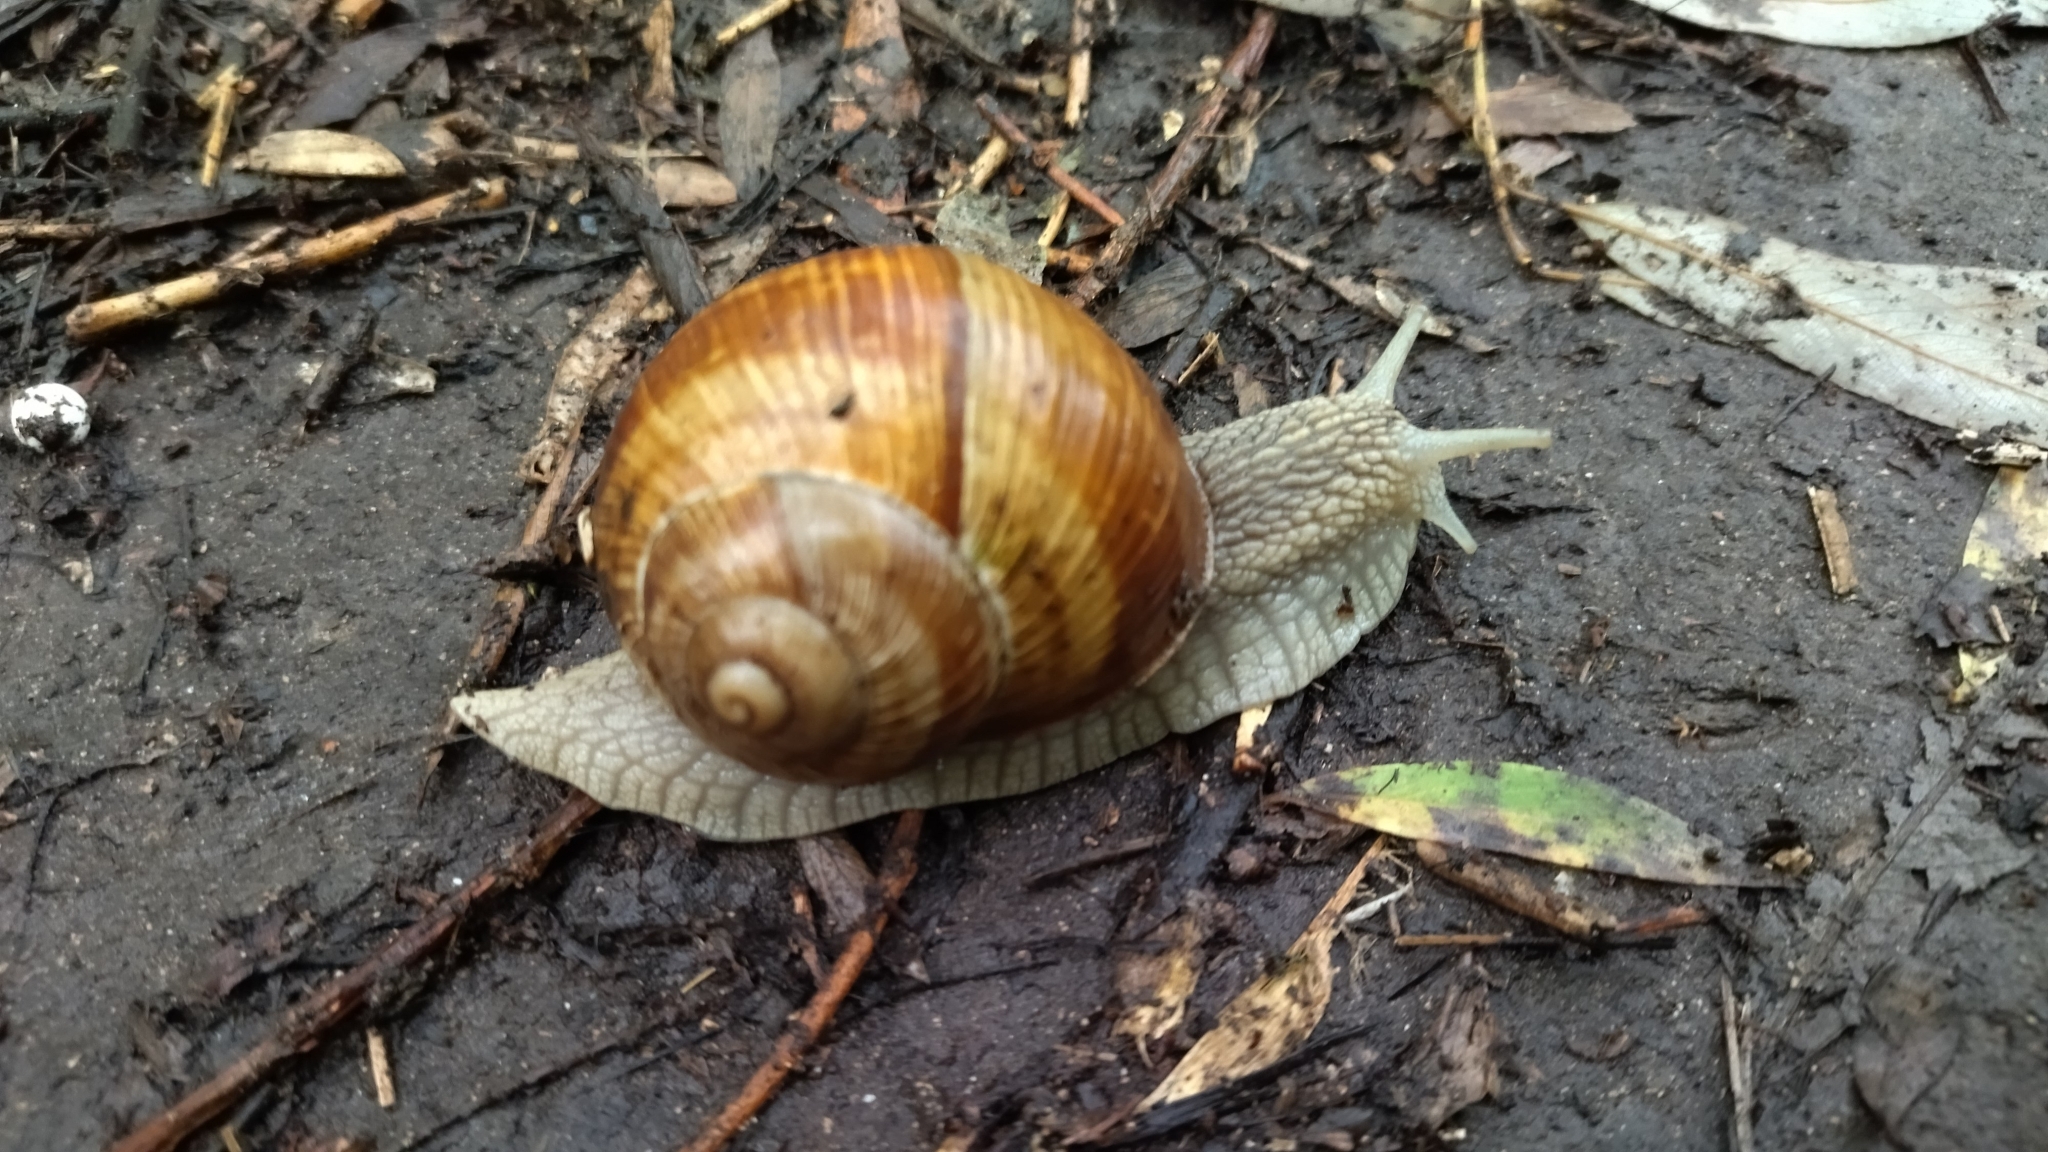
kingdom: Animalia
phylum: Mollusca
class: Gastropoda
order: Stylommatophora
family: Helicidae
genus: Helix
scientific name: Helix pomatia
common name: Roman snail
